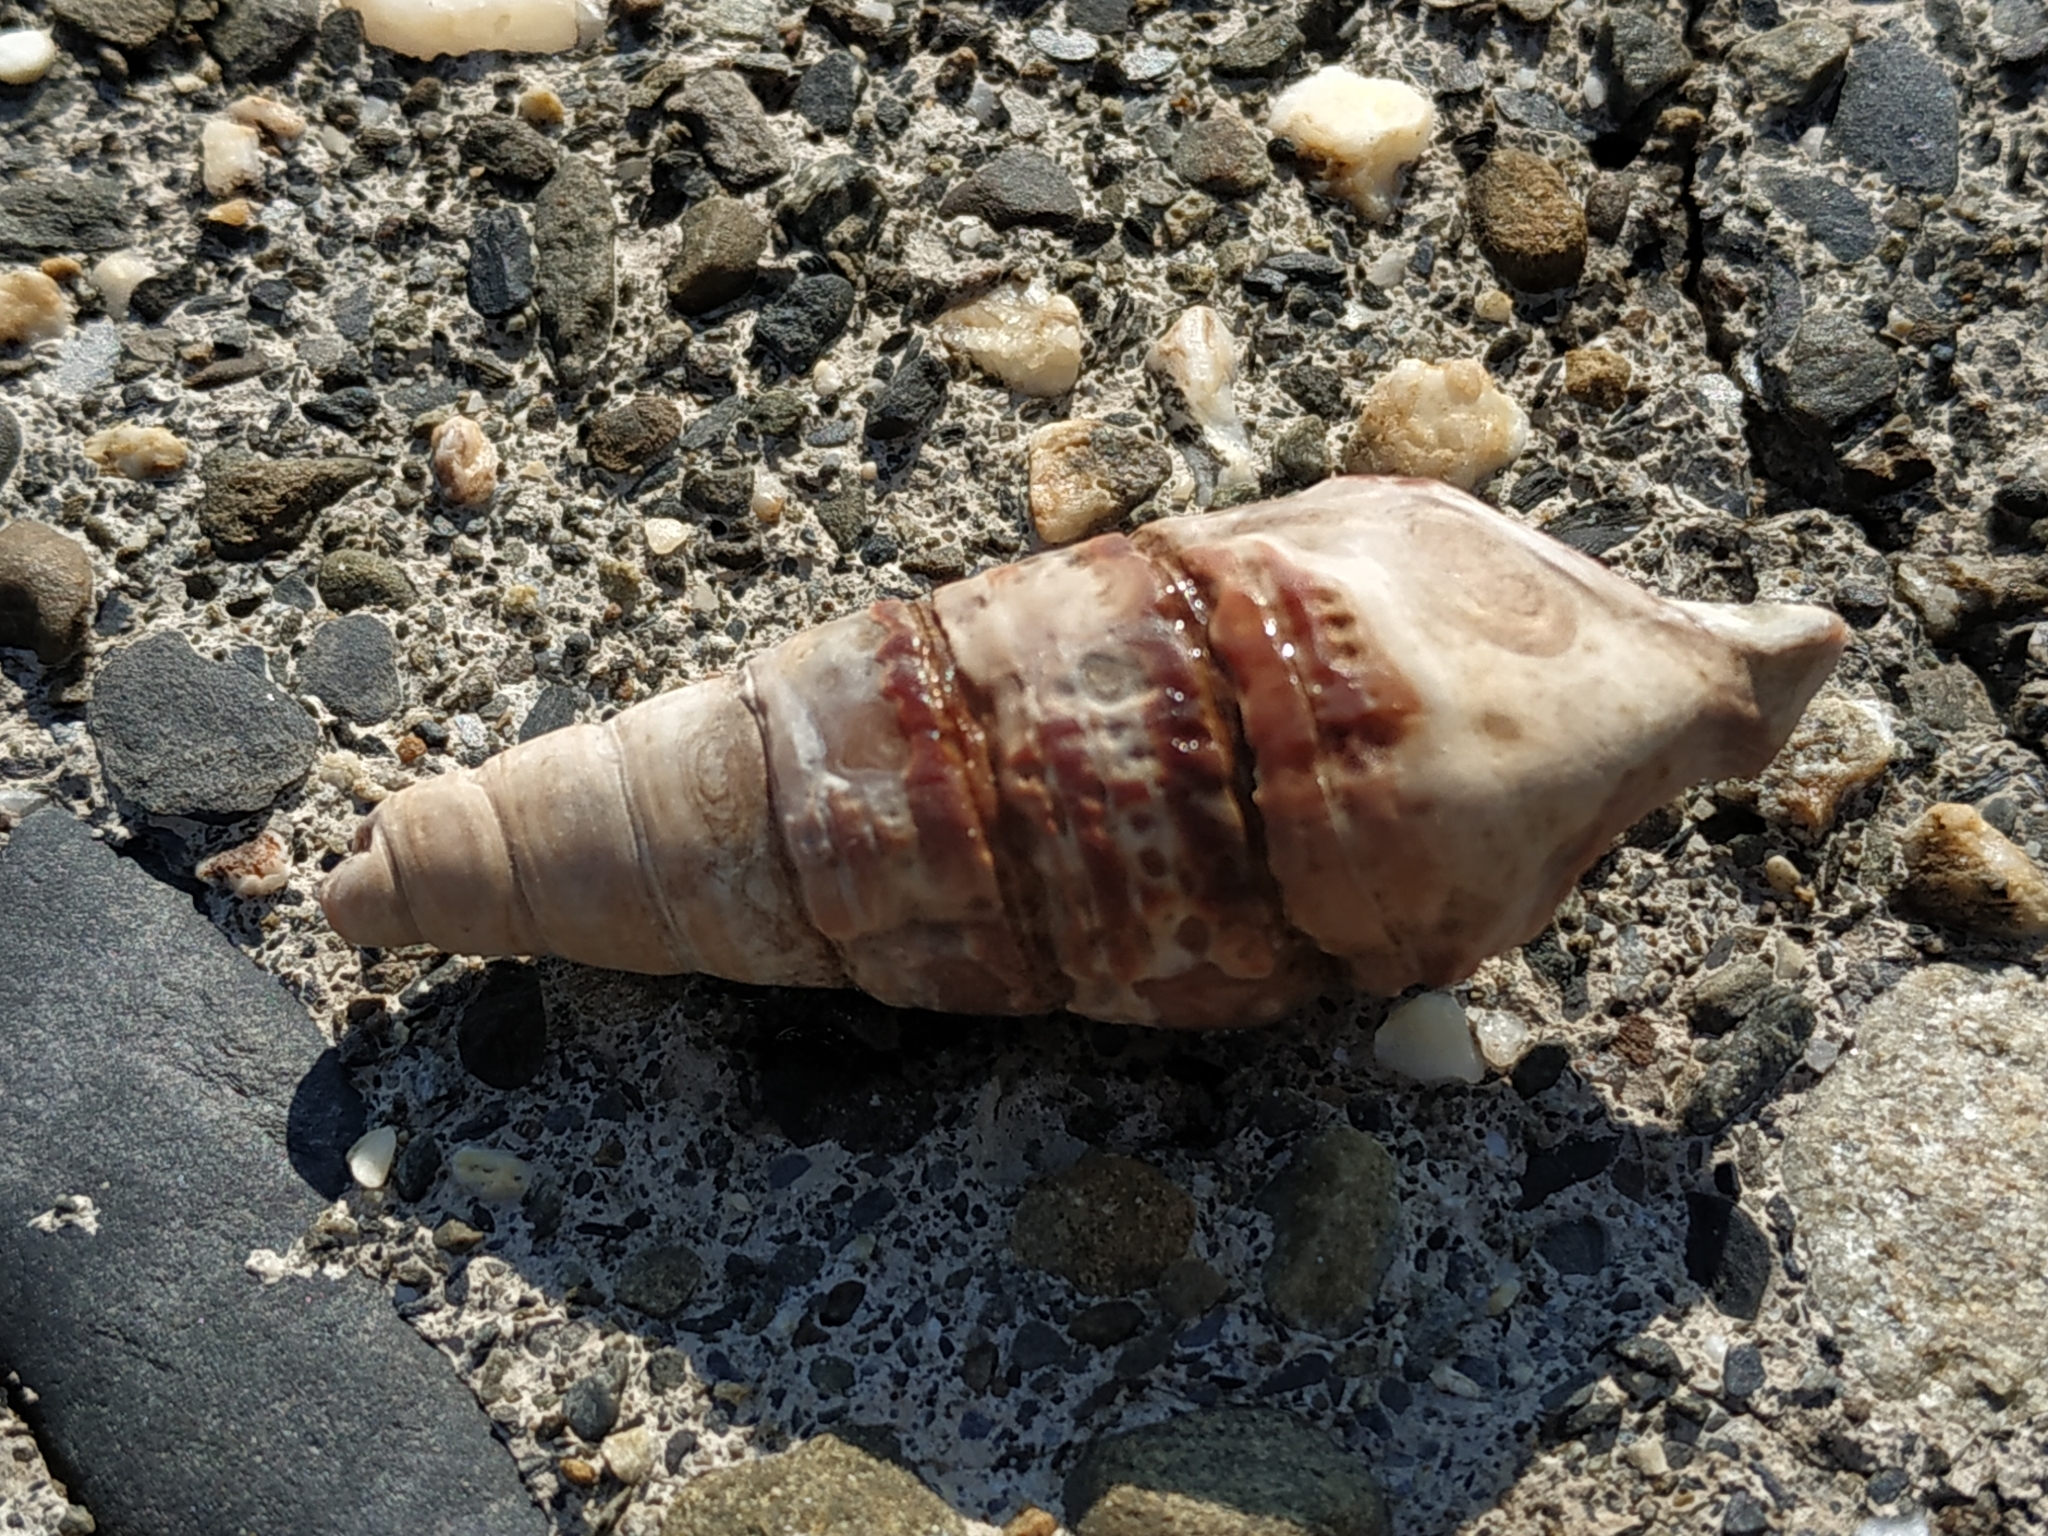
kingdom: Animalia
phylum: Mollusca
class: Gastropoda
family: Potamididae
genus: Terebralia
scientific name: Terebralia palustris
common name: Mangrove whelk
